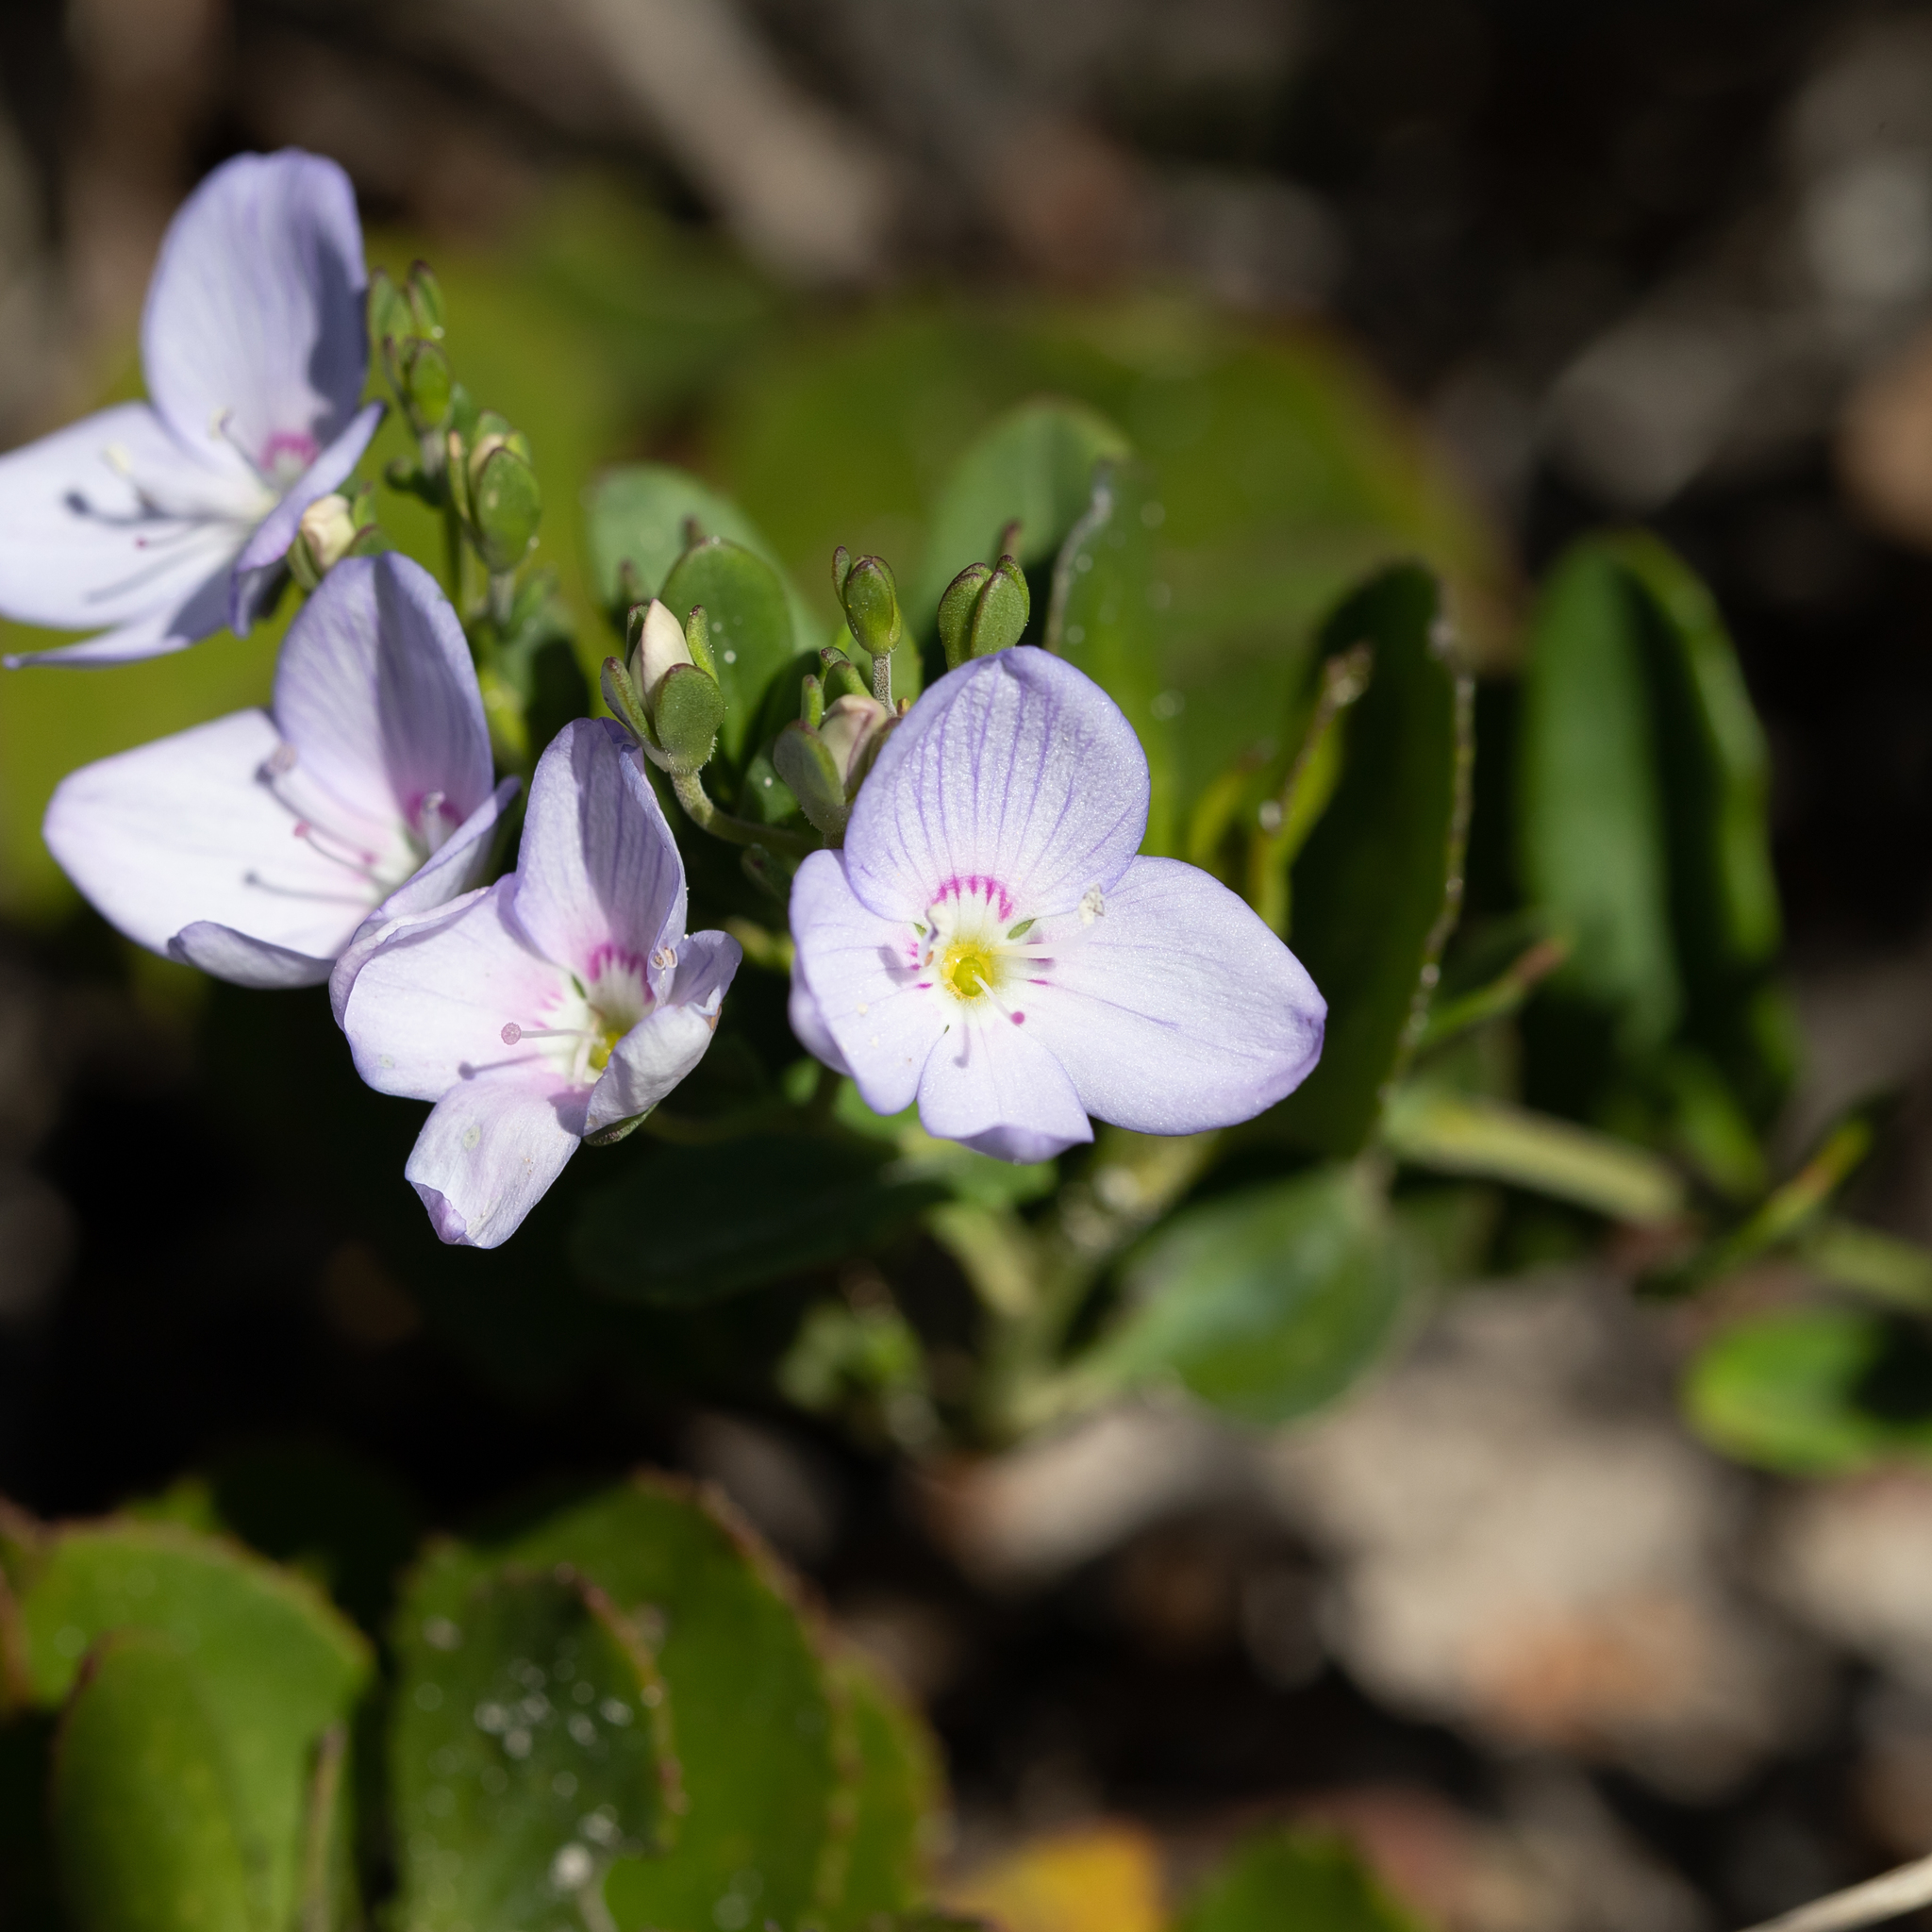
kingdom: Plantae
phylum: Tracheophyta
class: Magnoliopsida
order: Lamiales
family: Plantaginaceae
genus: Veronica
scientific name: Veronica hillebrandii
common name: Coast speedwell
